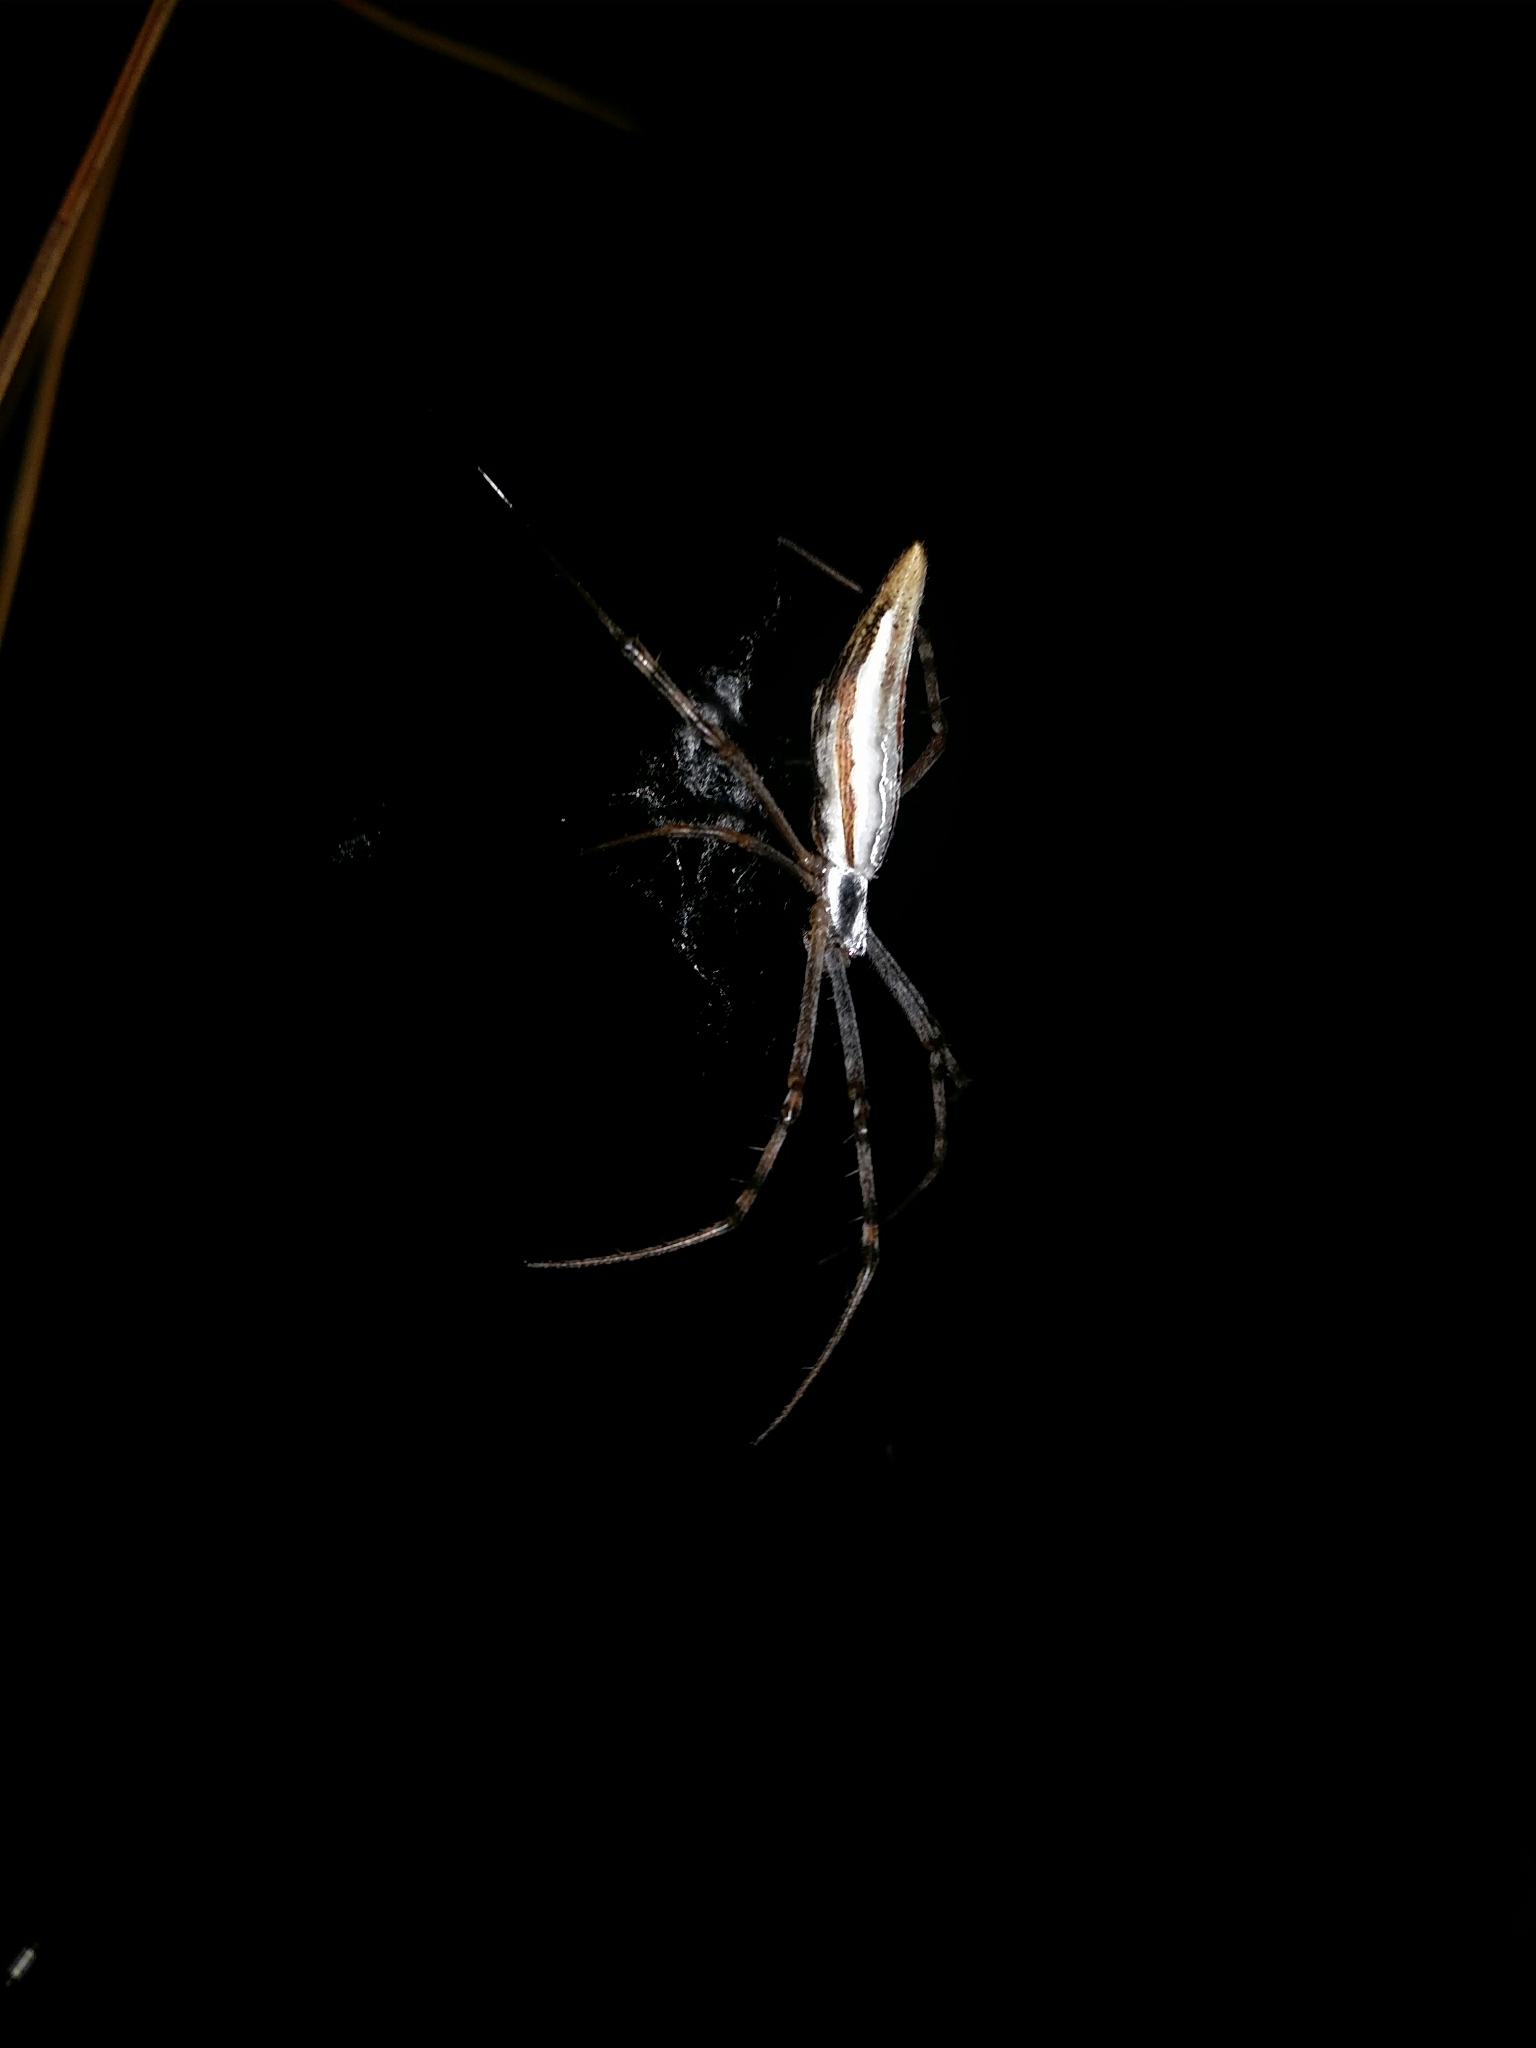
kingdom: Animalia
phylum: Arthropoda
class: Arachnida
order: Araneae
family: Araneidae
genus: Argiope
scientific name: Argiope protensa
